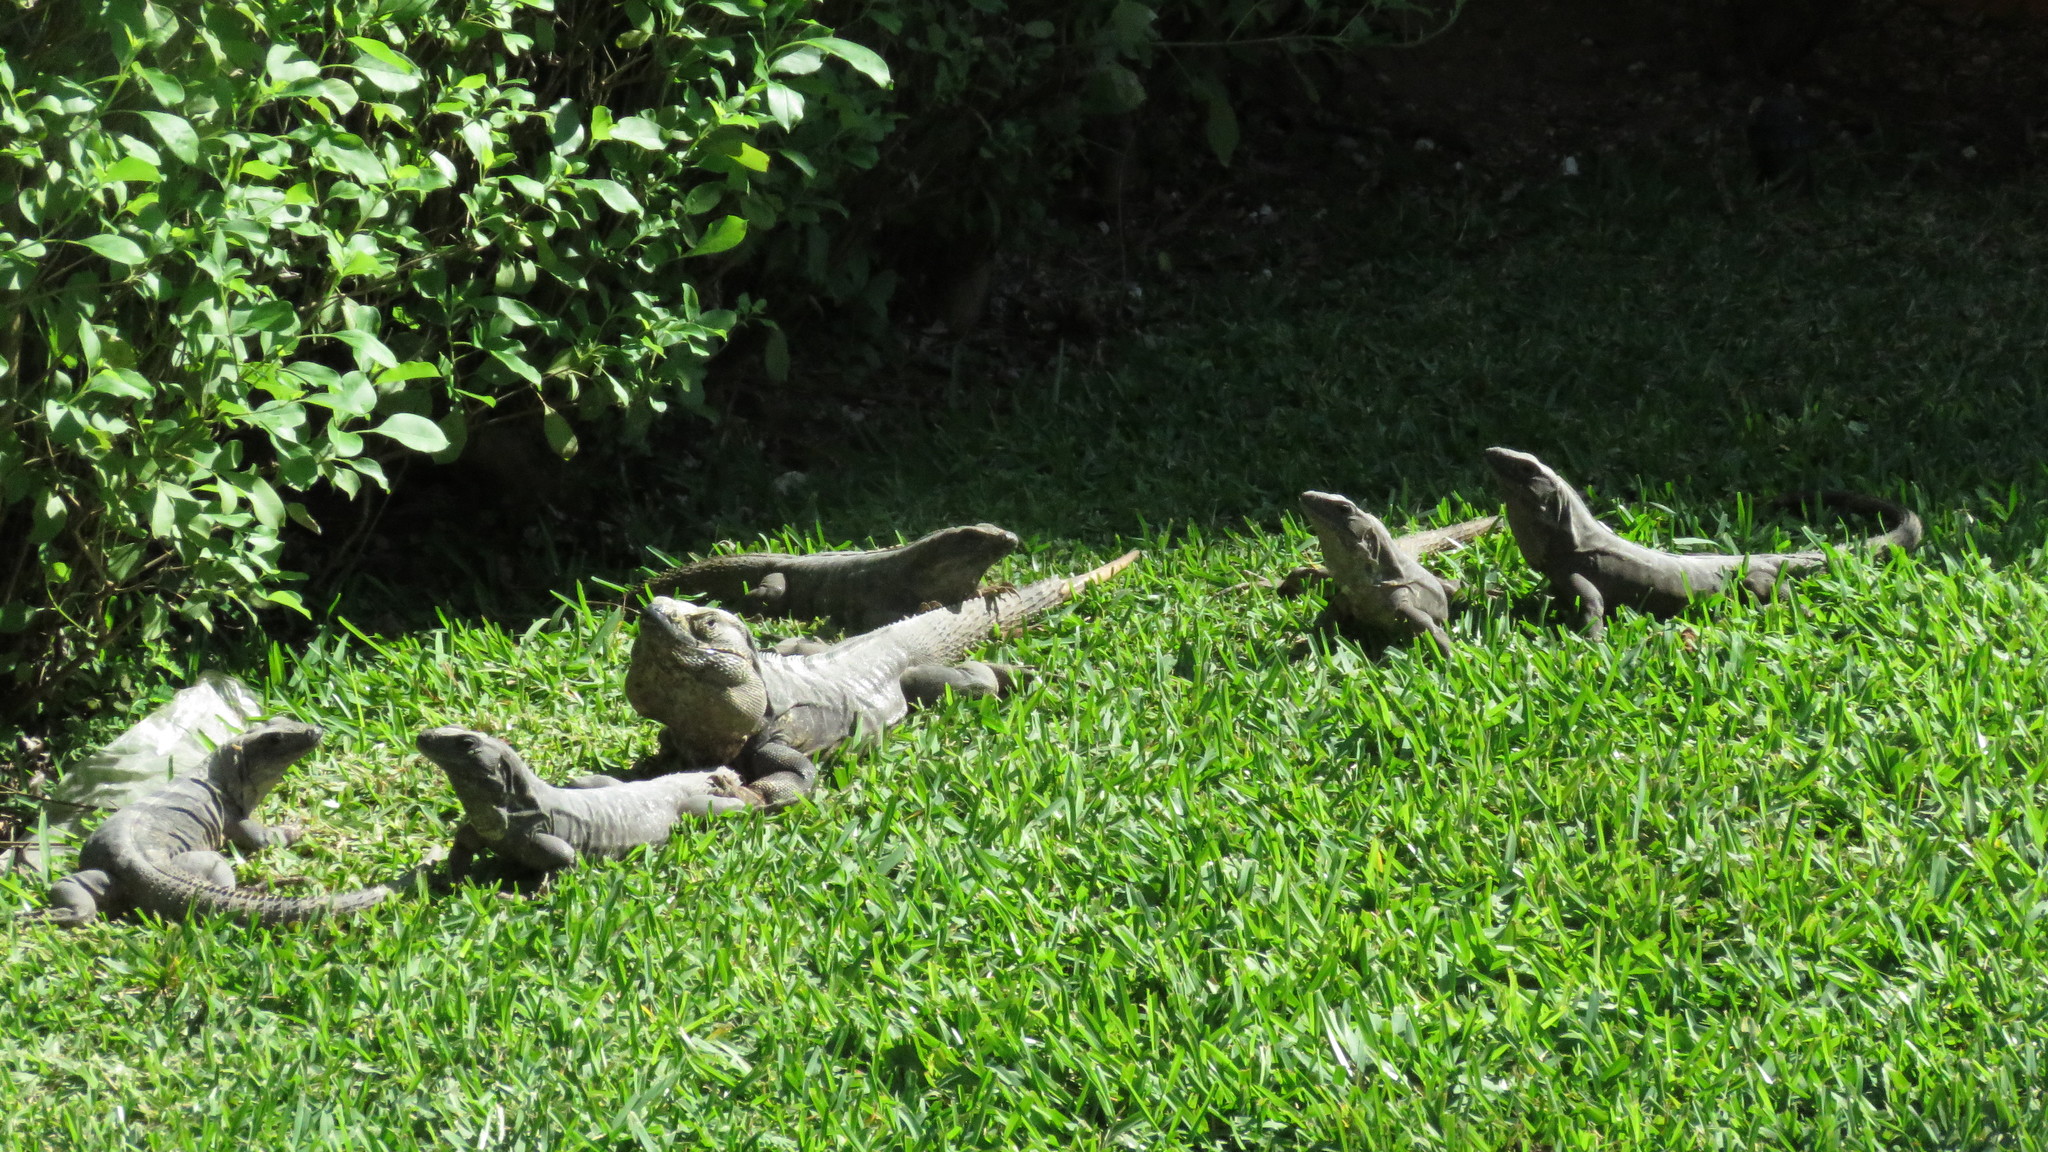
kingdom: Animalia
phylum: Chordata
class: Squamata
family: Iguanidae
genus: Ctenosaura
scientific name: Ctenosaura similis
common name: Black spiny-tailed iguana
